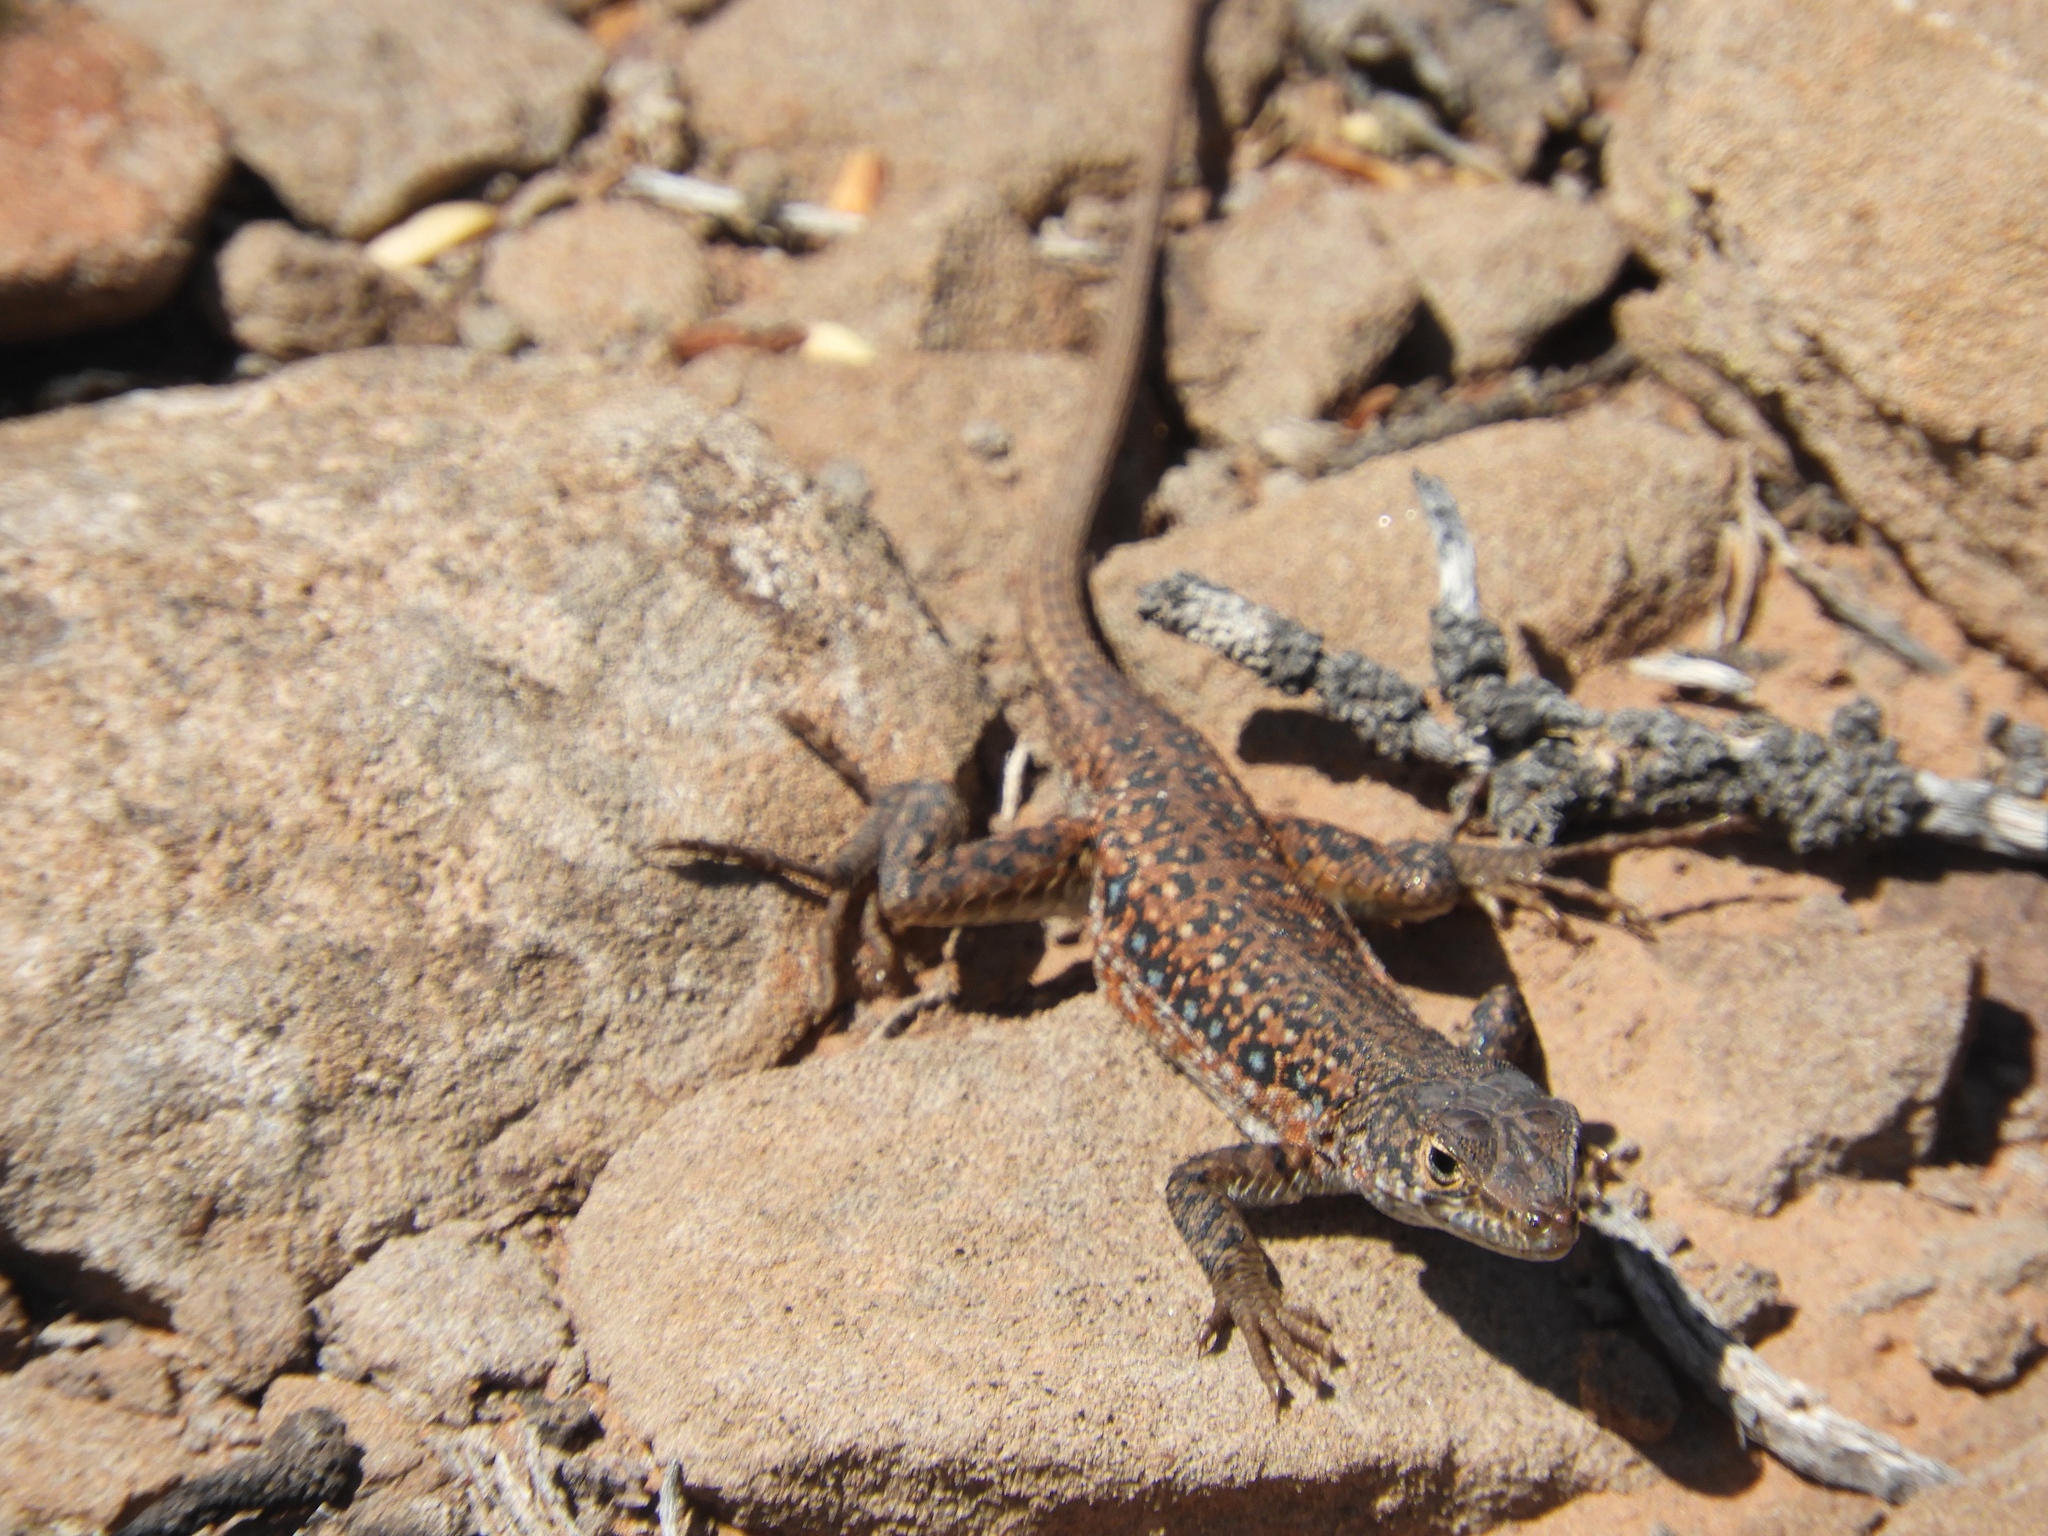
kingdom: Animalia
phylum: Chordata
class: Squamata
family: Lacertidae
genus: Pedioplanis
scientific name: Pedioplanis lineoocellata
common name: Spotted sand lizard
